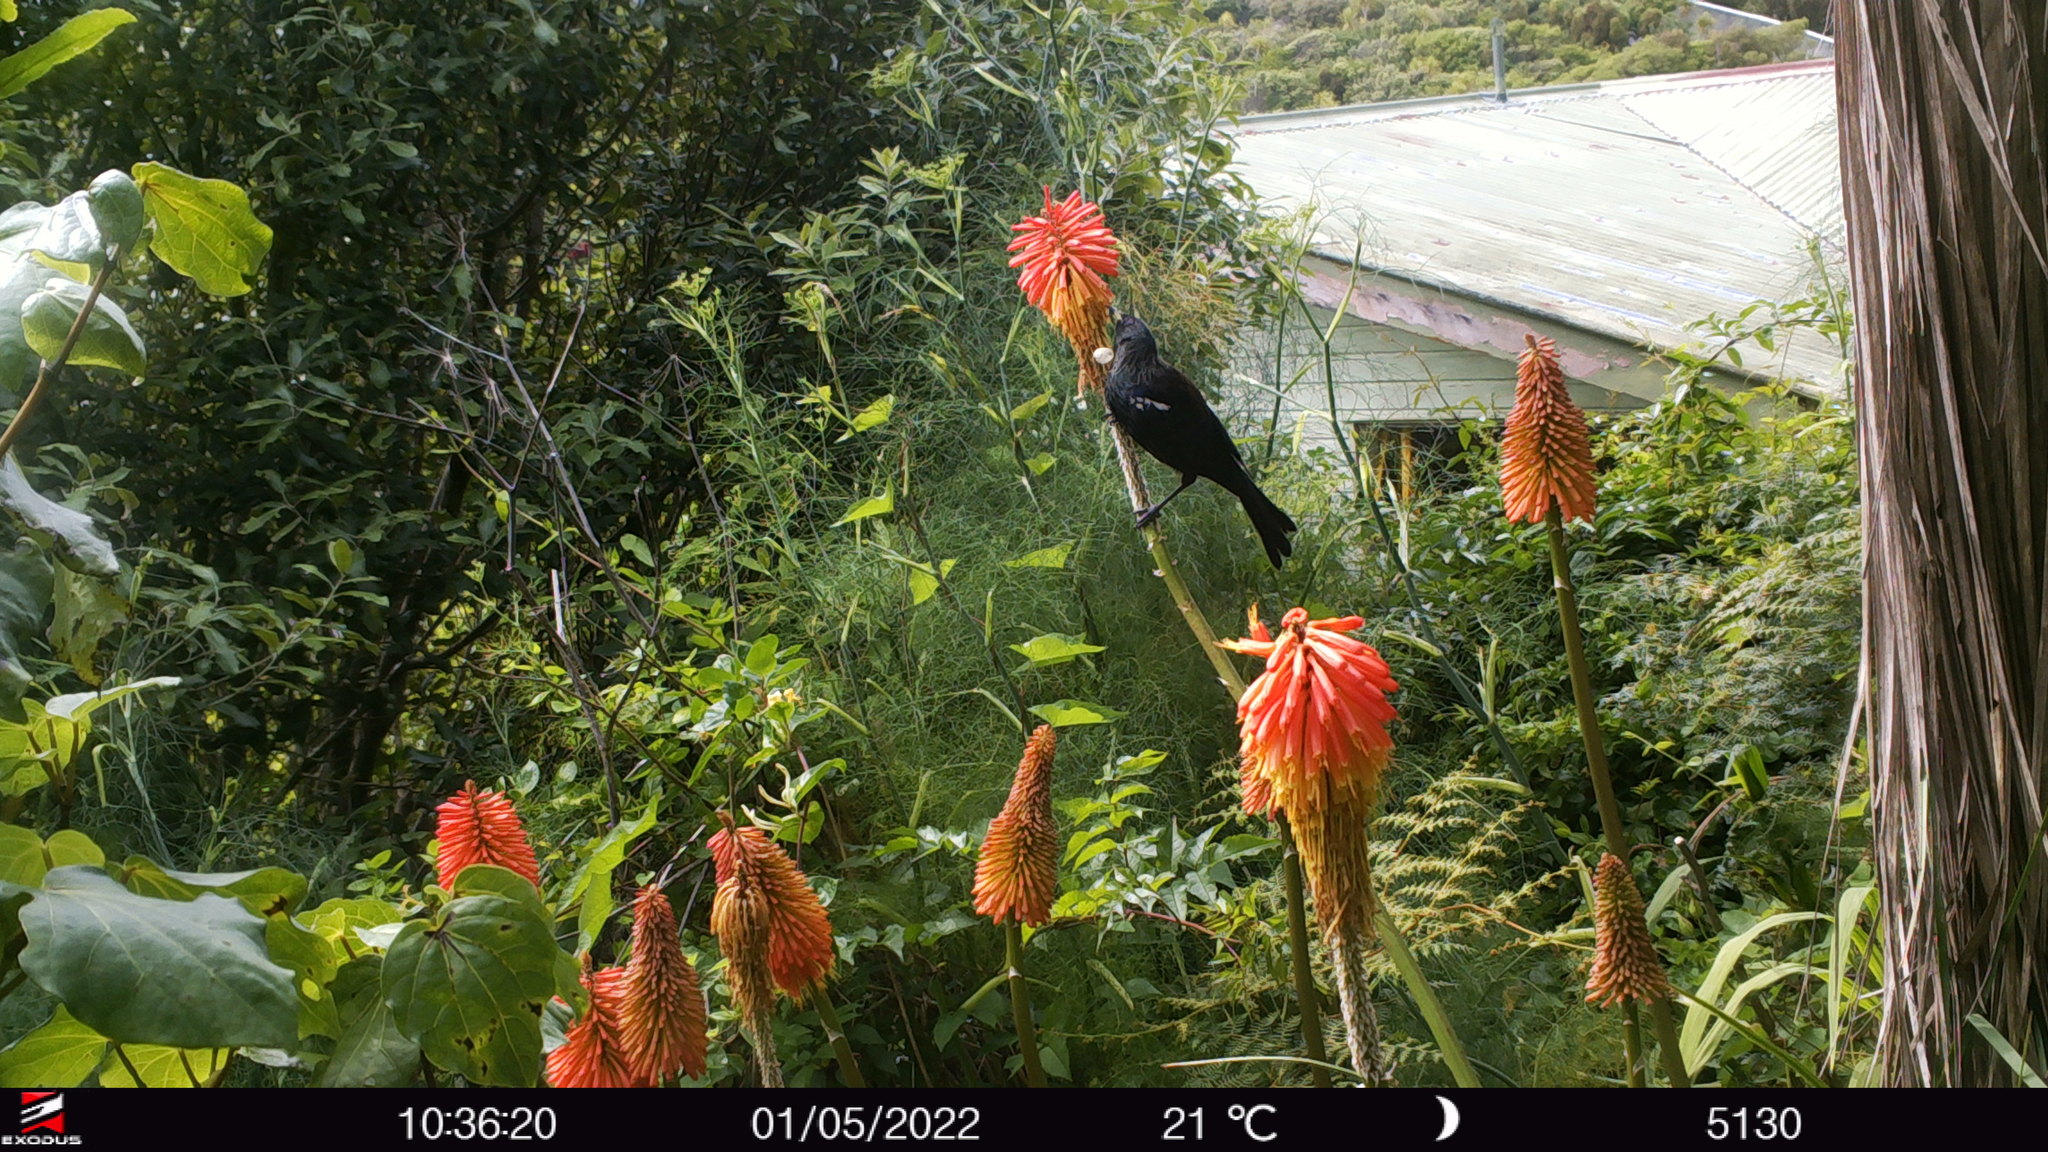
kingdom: Animalia
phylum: Chordata
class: Aves
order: Passeriformes
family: Meliphagidae
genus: Prosthemadera
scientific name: Prosthemadera novaeseelandiae
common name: Tui
